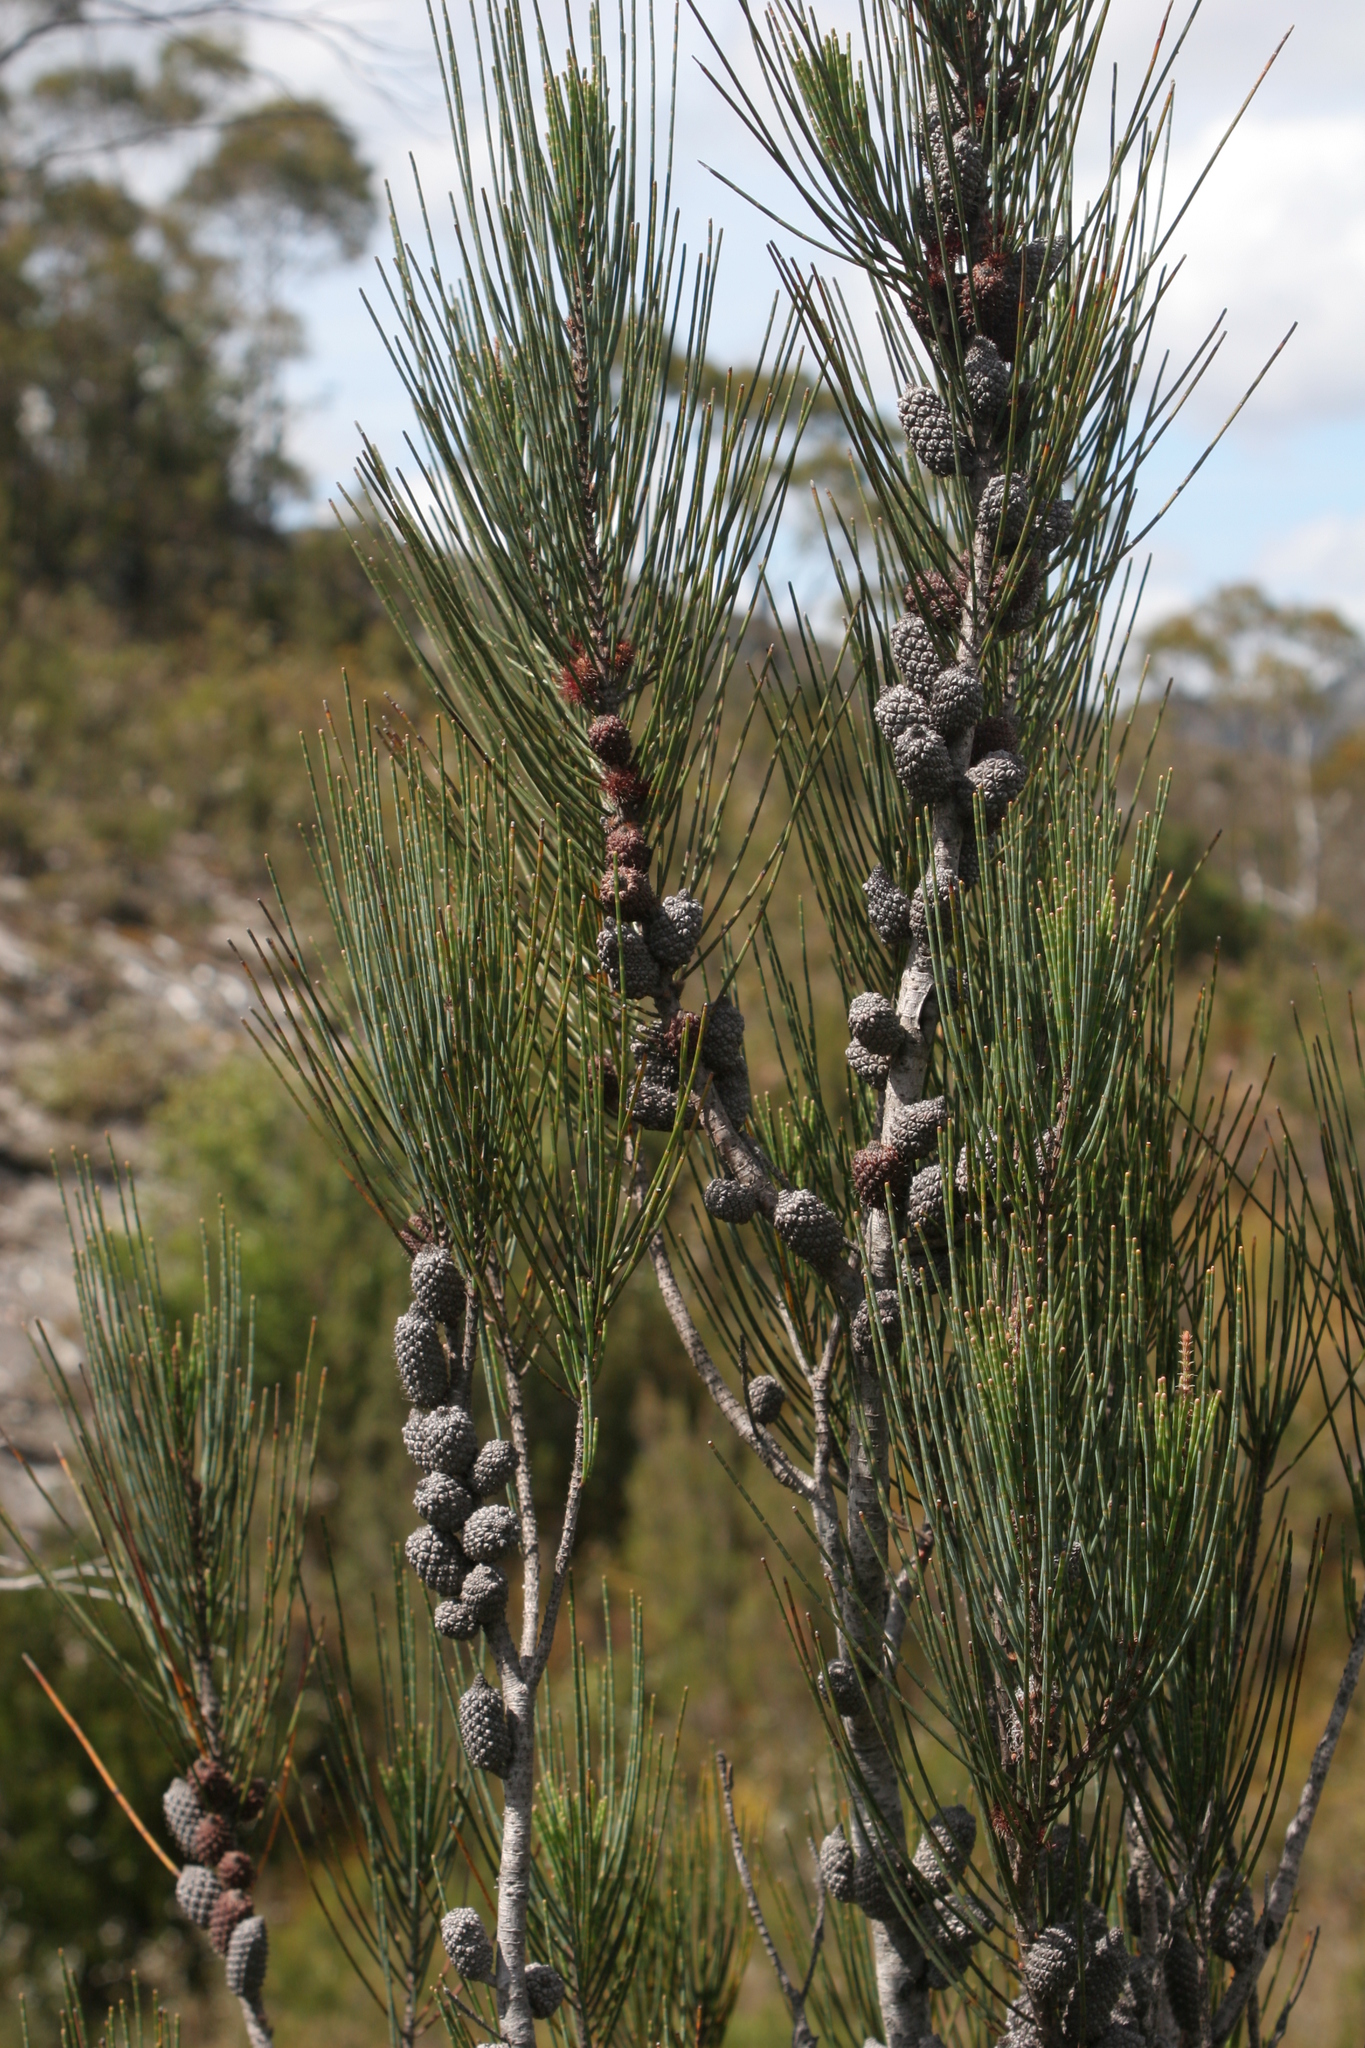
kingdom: Plantae
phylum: Tracheophyta
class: Magnoliopsida
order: Fagales
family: Casuarinaceae
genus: Allocasuarina
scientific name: Allocasuarina zephyrea
